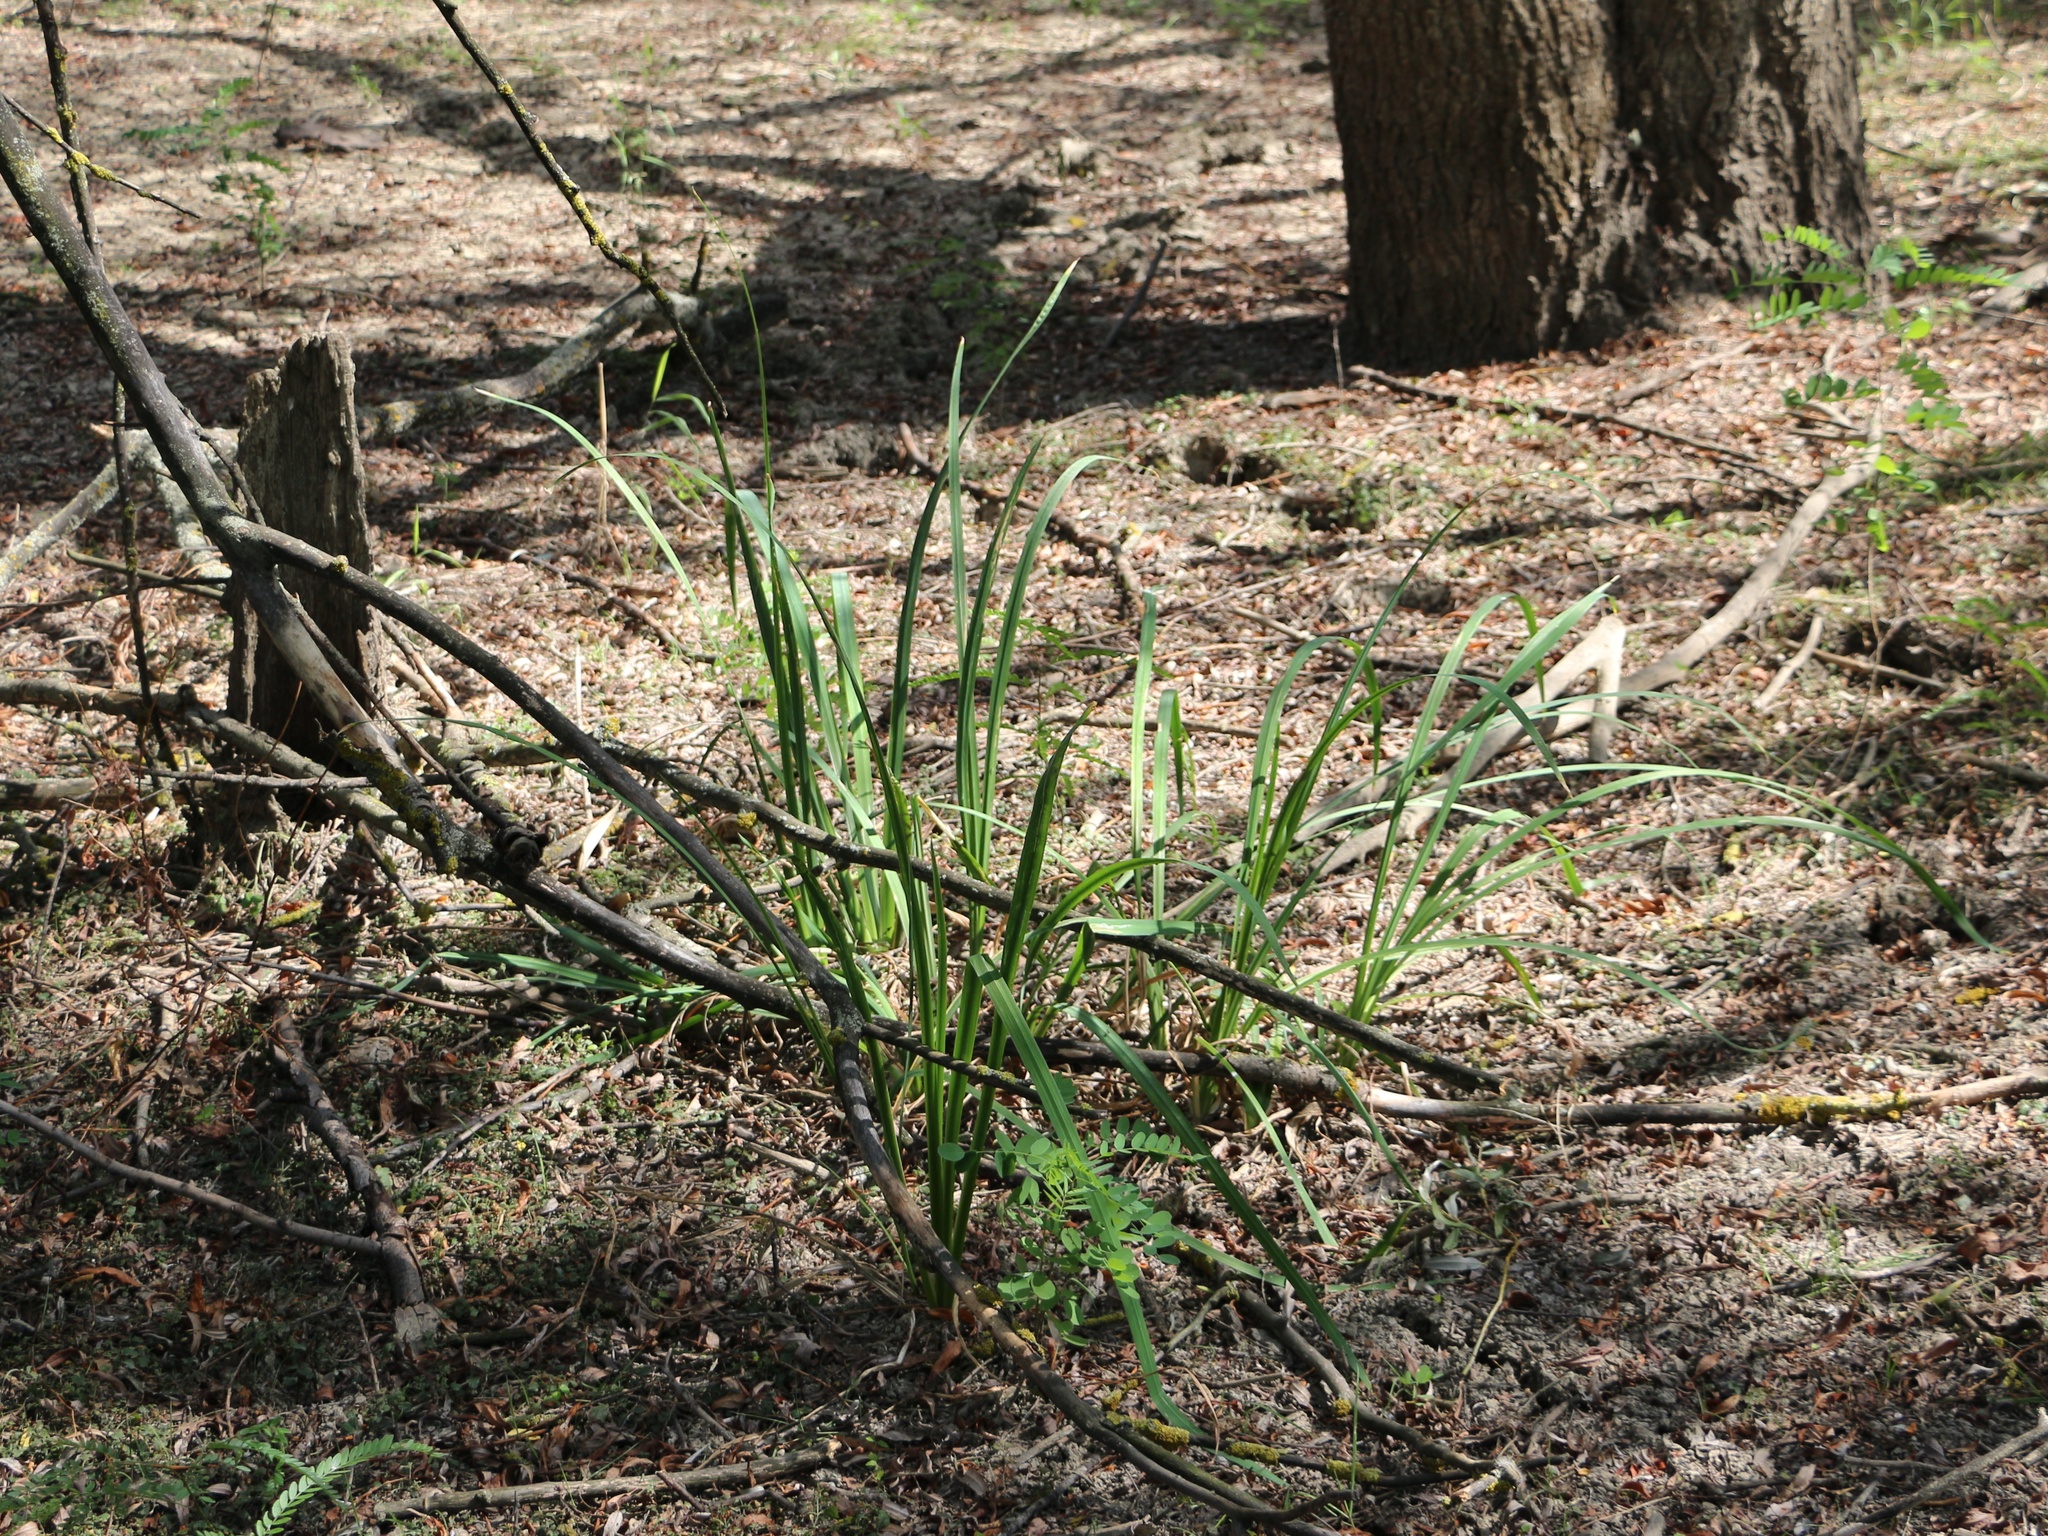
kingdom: Plantae
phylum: Tracheophyta
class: Liliopsida
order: Asparagales
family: Iridaceae
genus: Iris
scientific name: Iris pseudacorus
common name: Yellow flag
